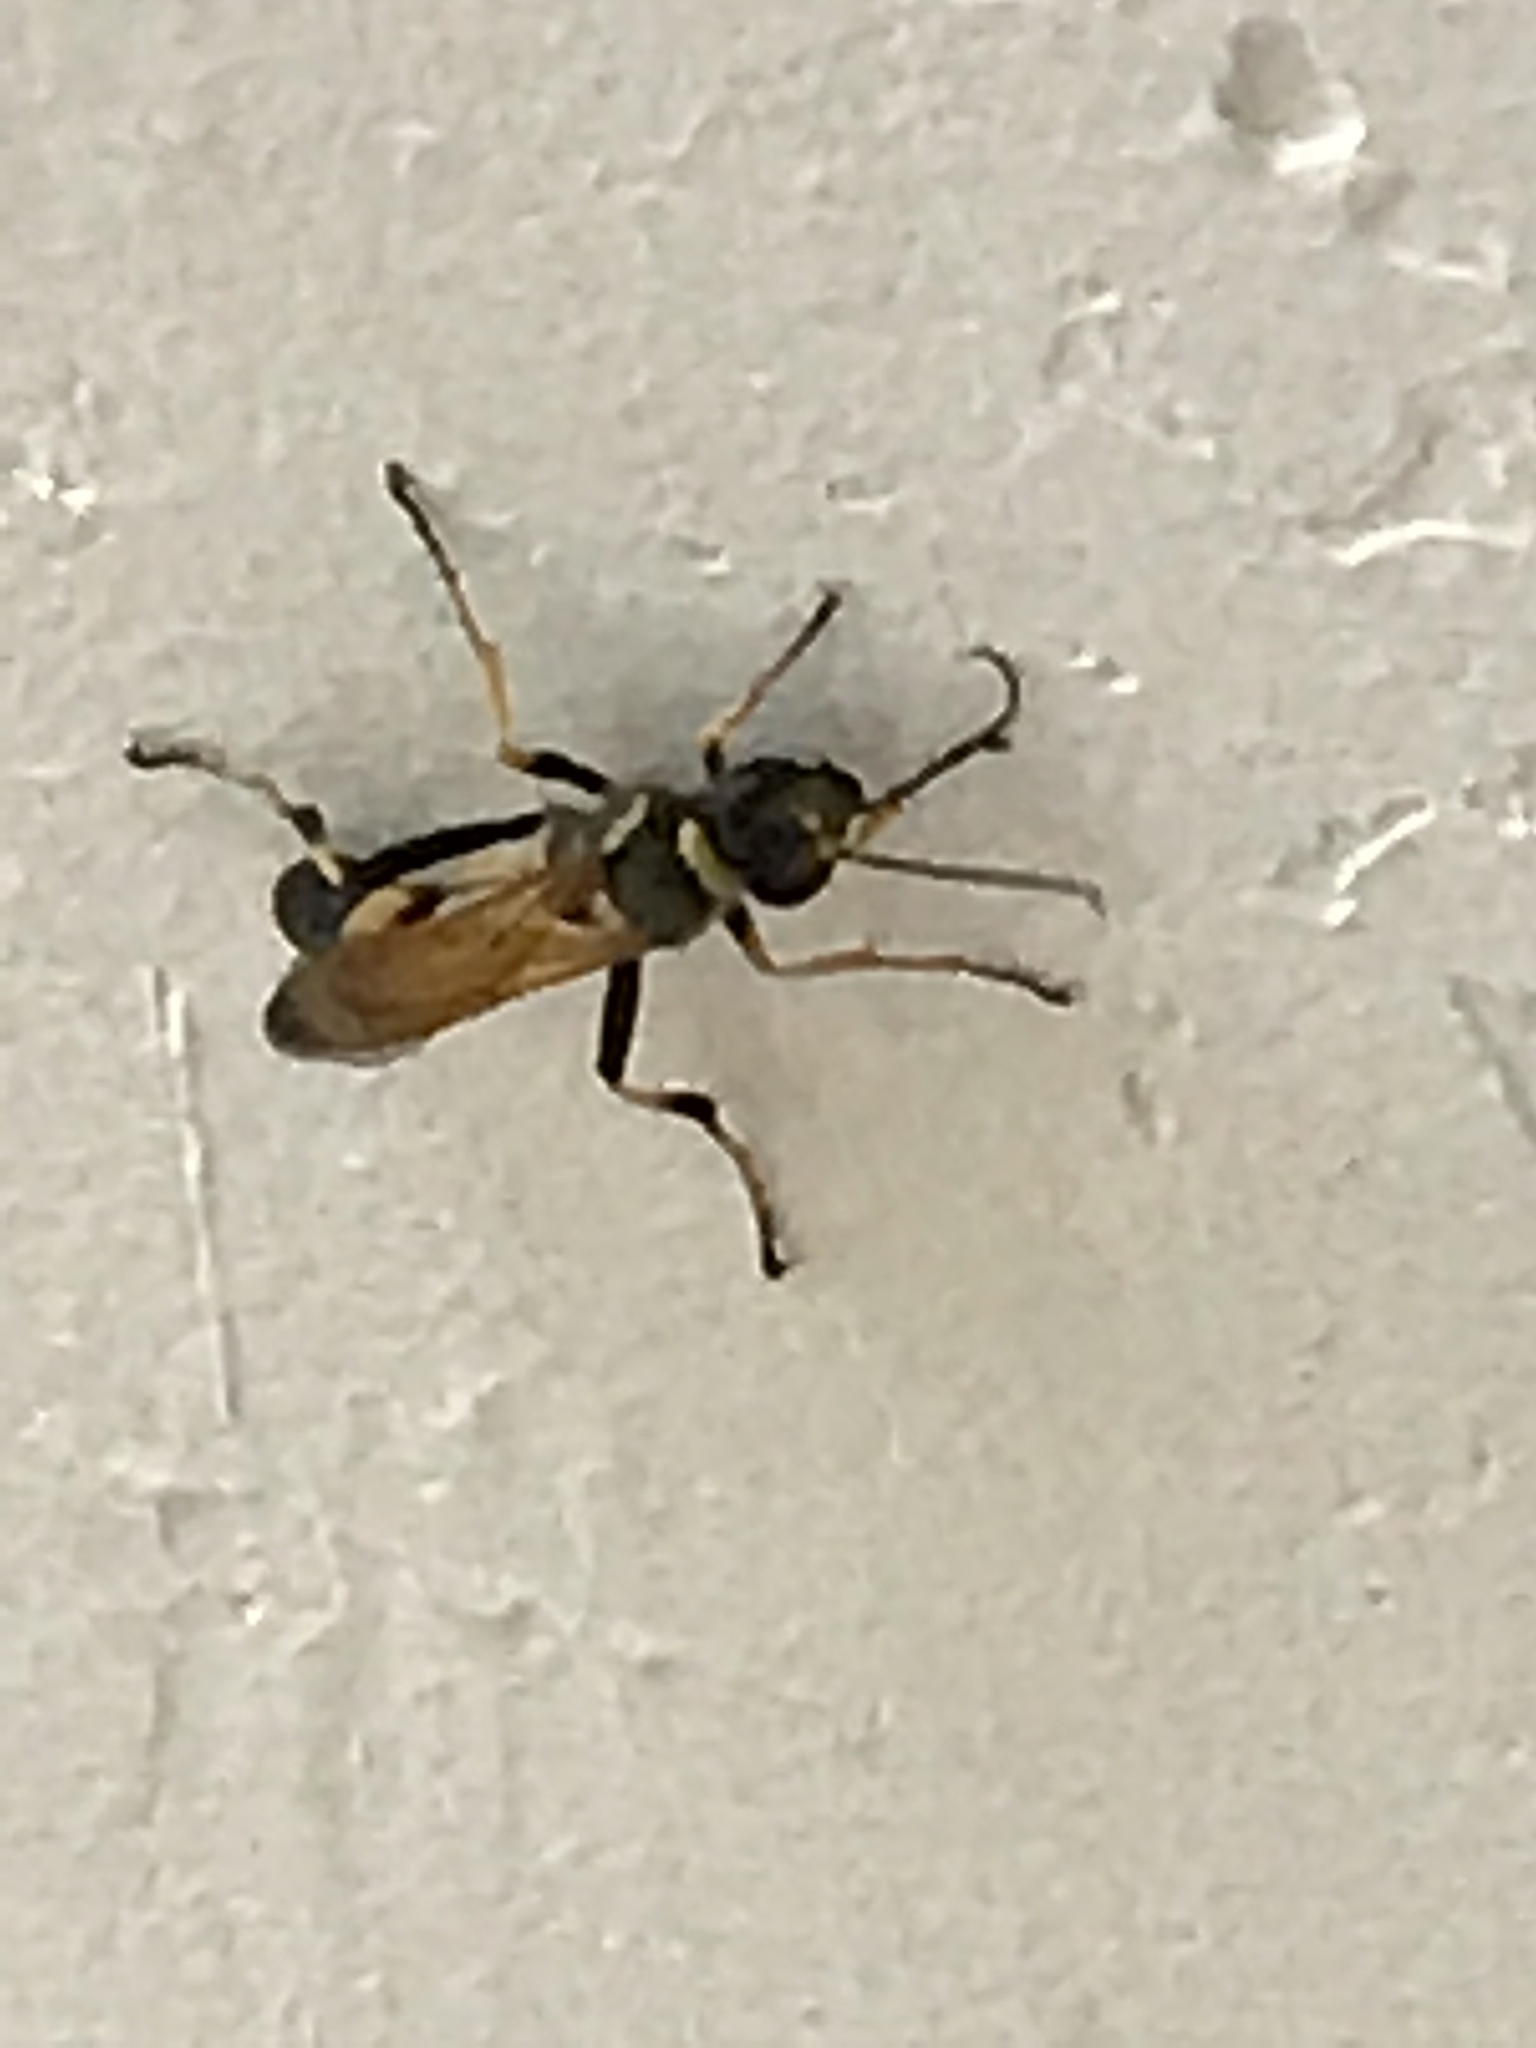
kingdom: Animalia
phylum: Arthropoda
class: Insecta
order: Hymenoptera
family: Sphecidae
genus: Sceliphron
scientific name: Sceliphron caementarium
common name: Mud dauber
